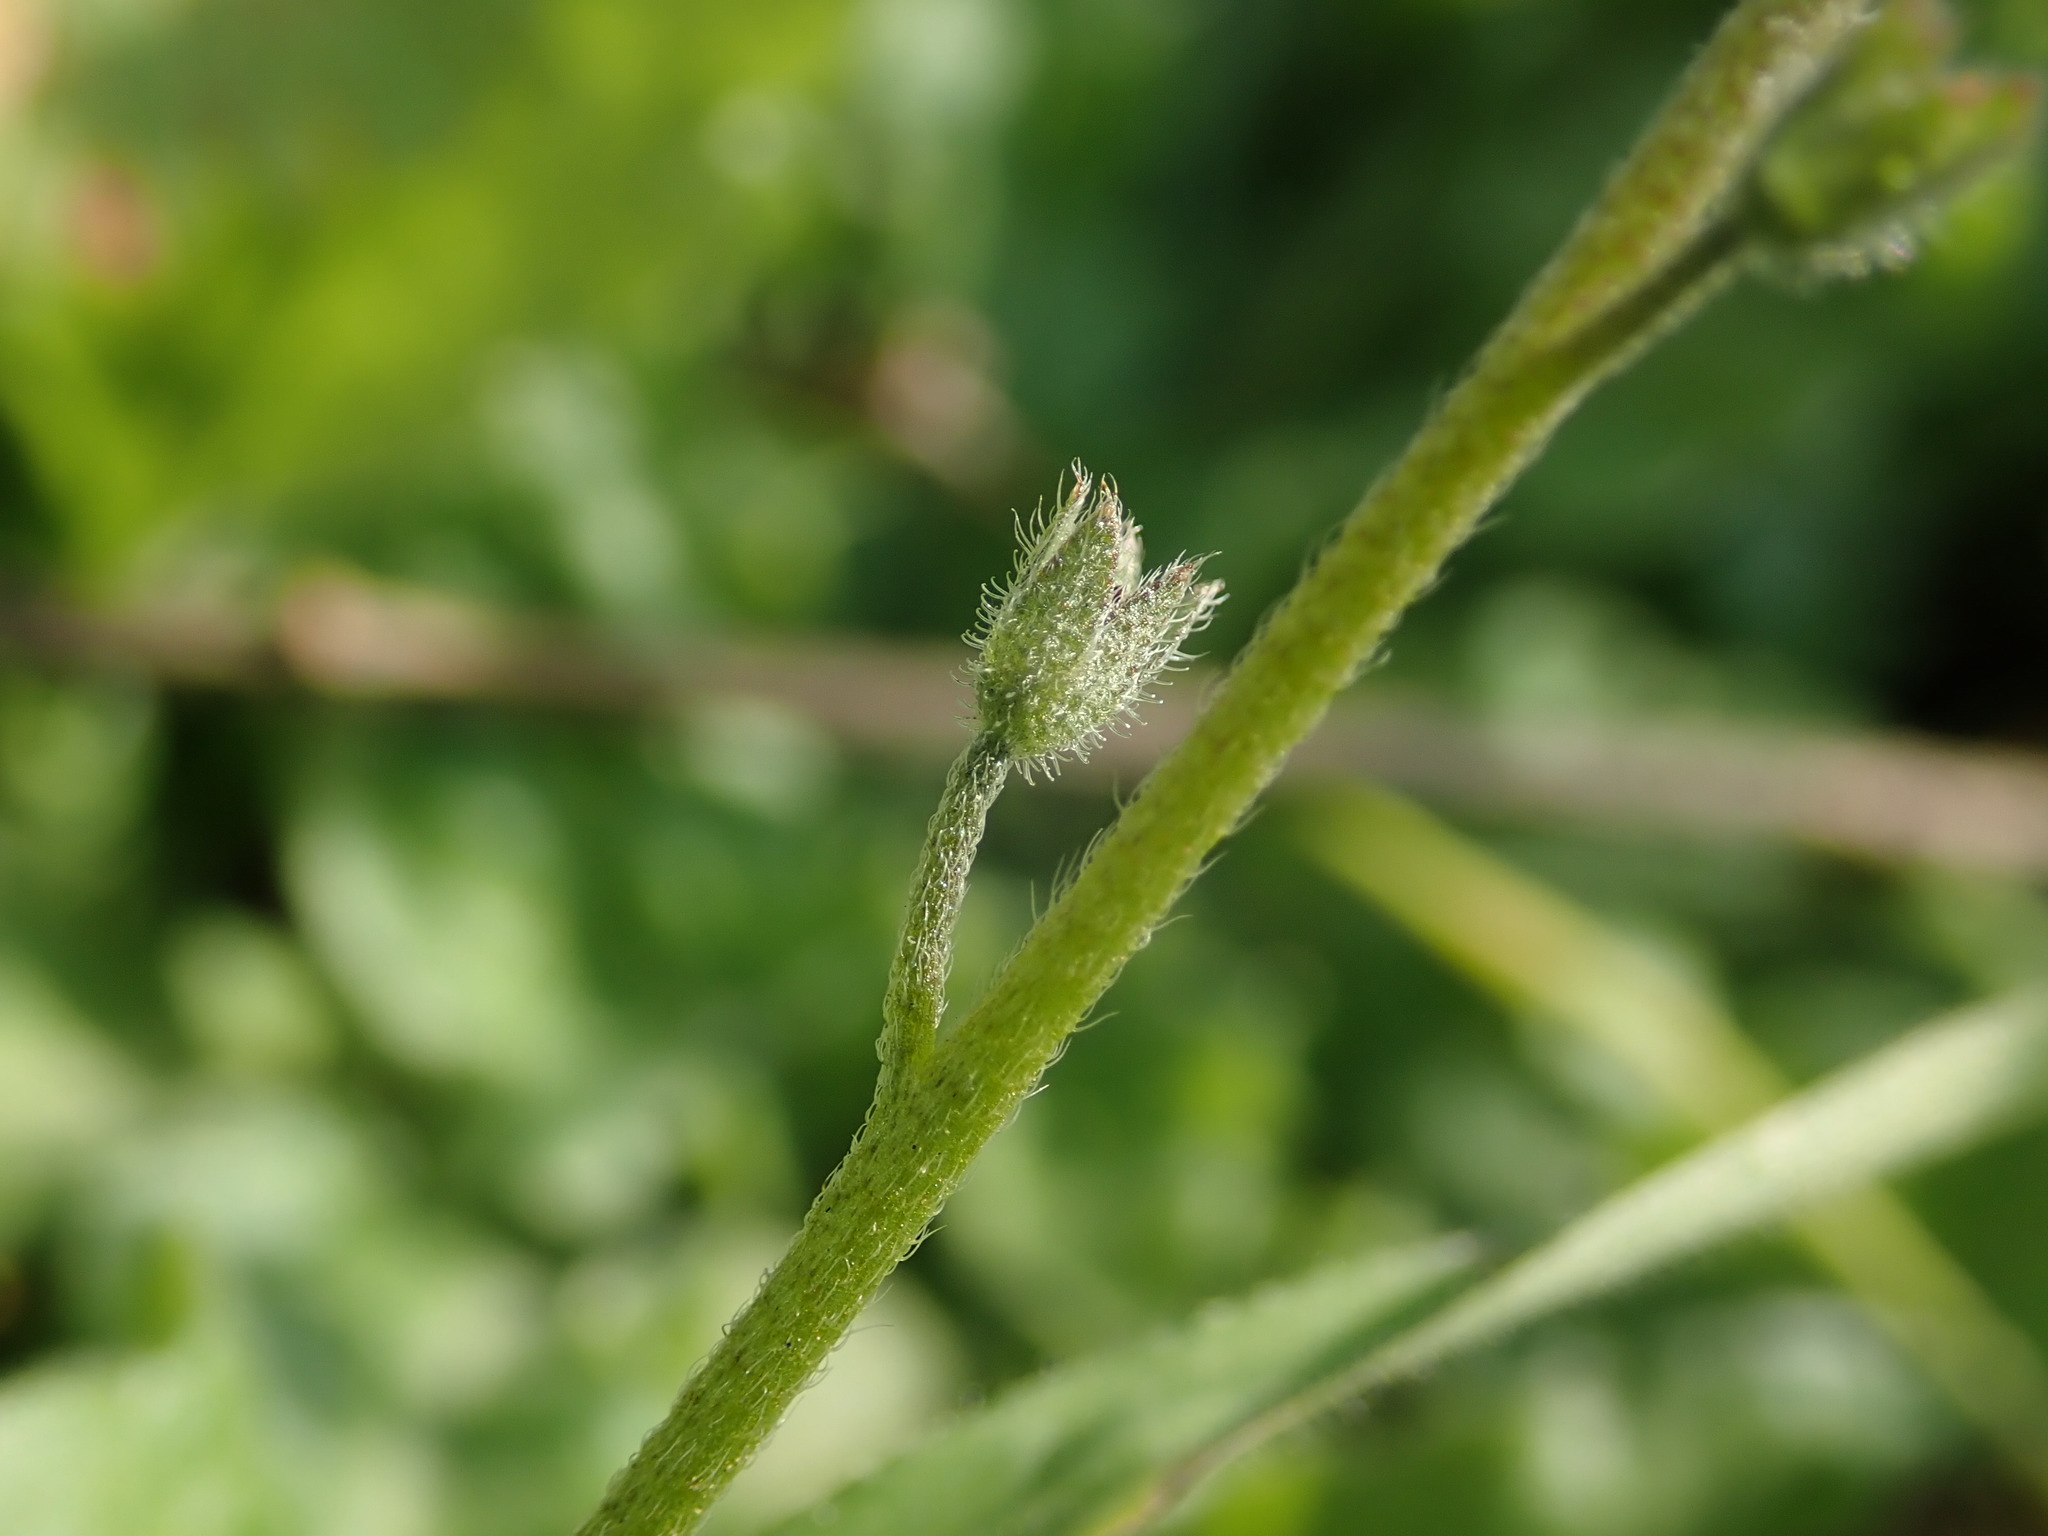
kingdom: Plantae
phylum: Tracheophyta
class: Magnoliopsida
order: Boraginales
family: Boraginaceae
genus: Myosotis
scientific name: Myosotis arvensis
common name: Field forget-me-not
